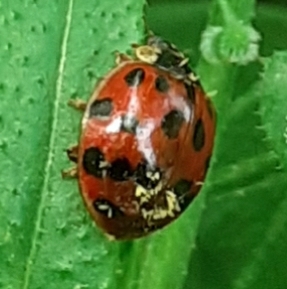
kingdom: Fungi
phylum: Ascomycota
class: Laboulbeniomycetes
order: Laboulbeniales
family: Laboulbeniaceae
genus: Hesperomyces
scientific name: Hesperomyces harmoniae
